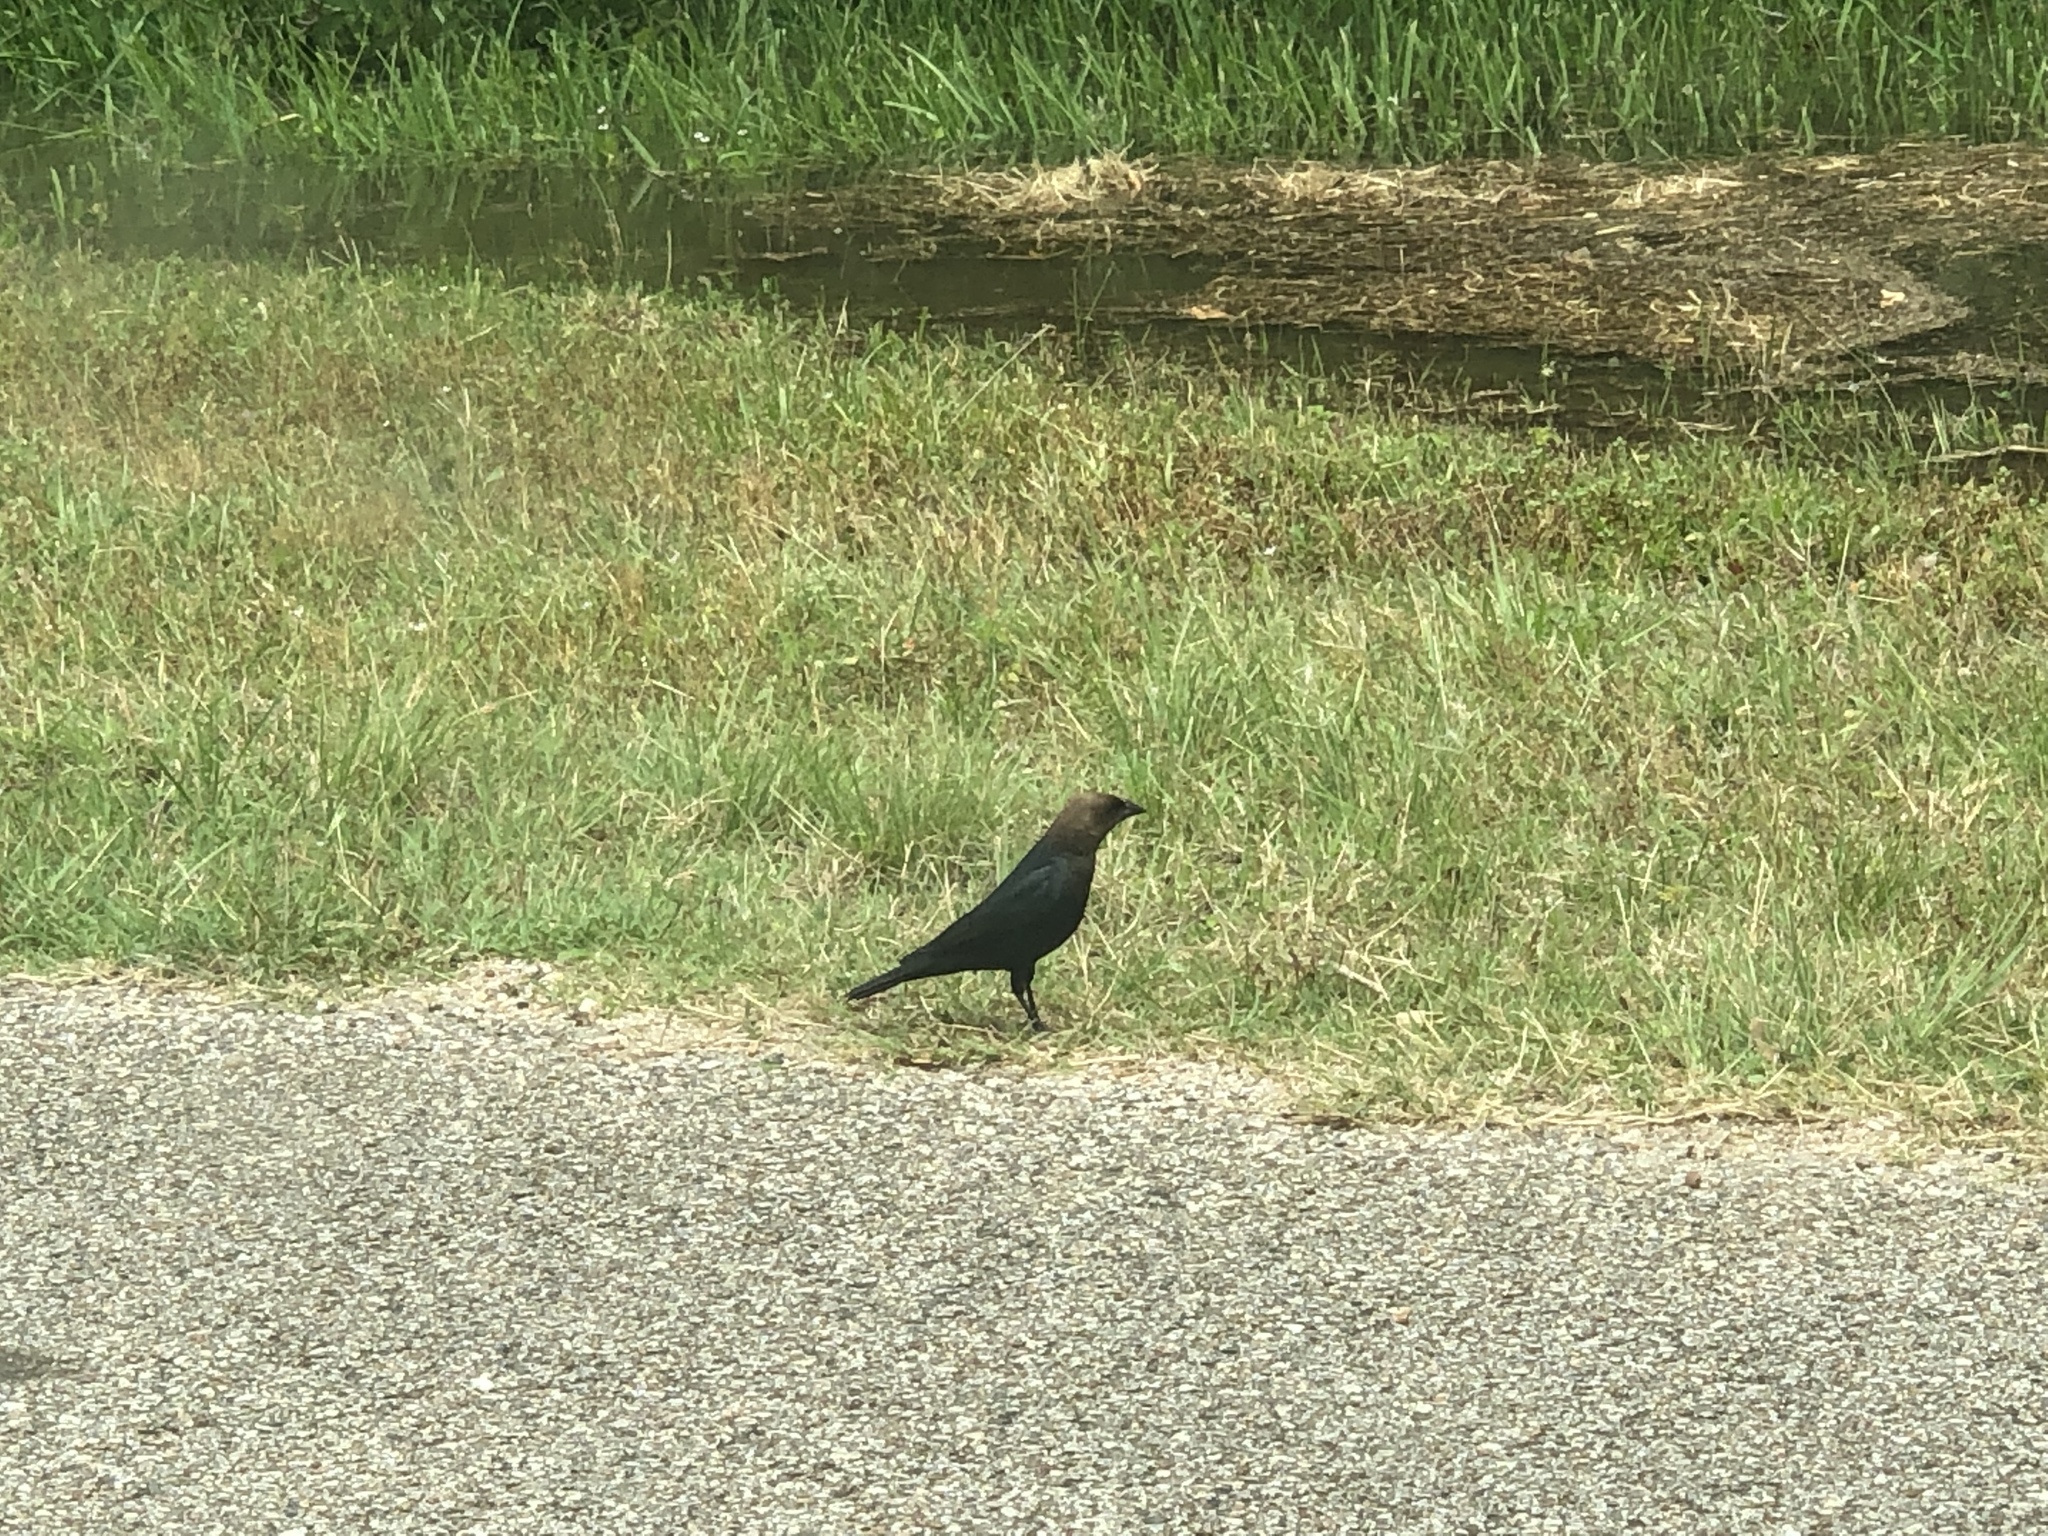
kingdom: Animalia
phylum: Chordata
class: Aves
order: Passeriformes
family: Icteridae
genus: Molothrus
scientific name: Molothrus ater
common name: Brown-headed cowbird
